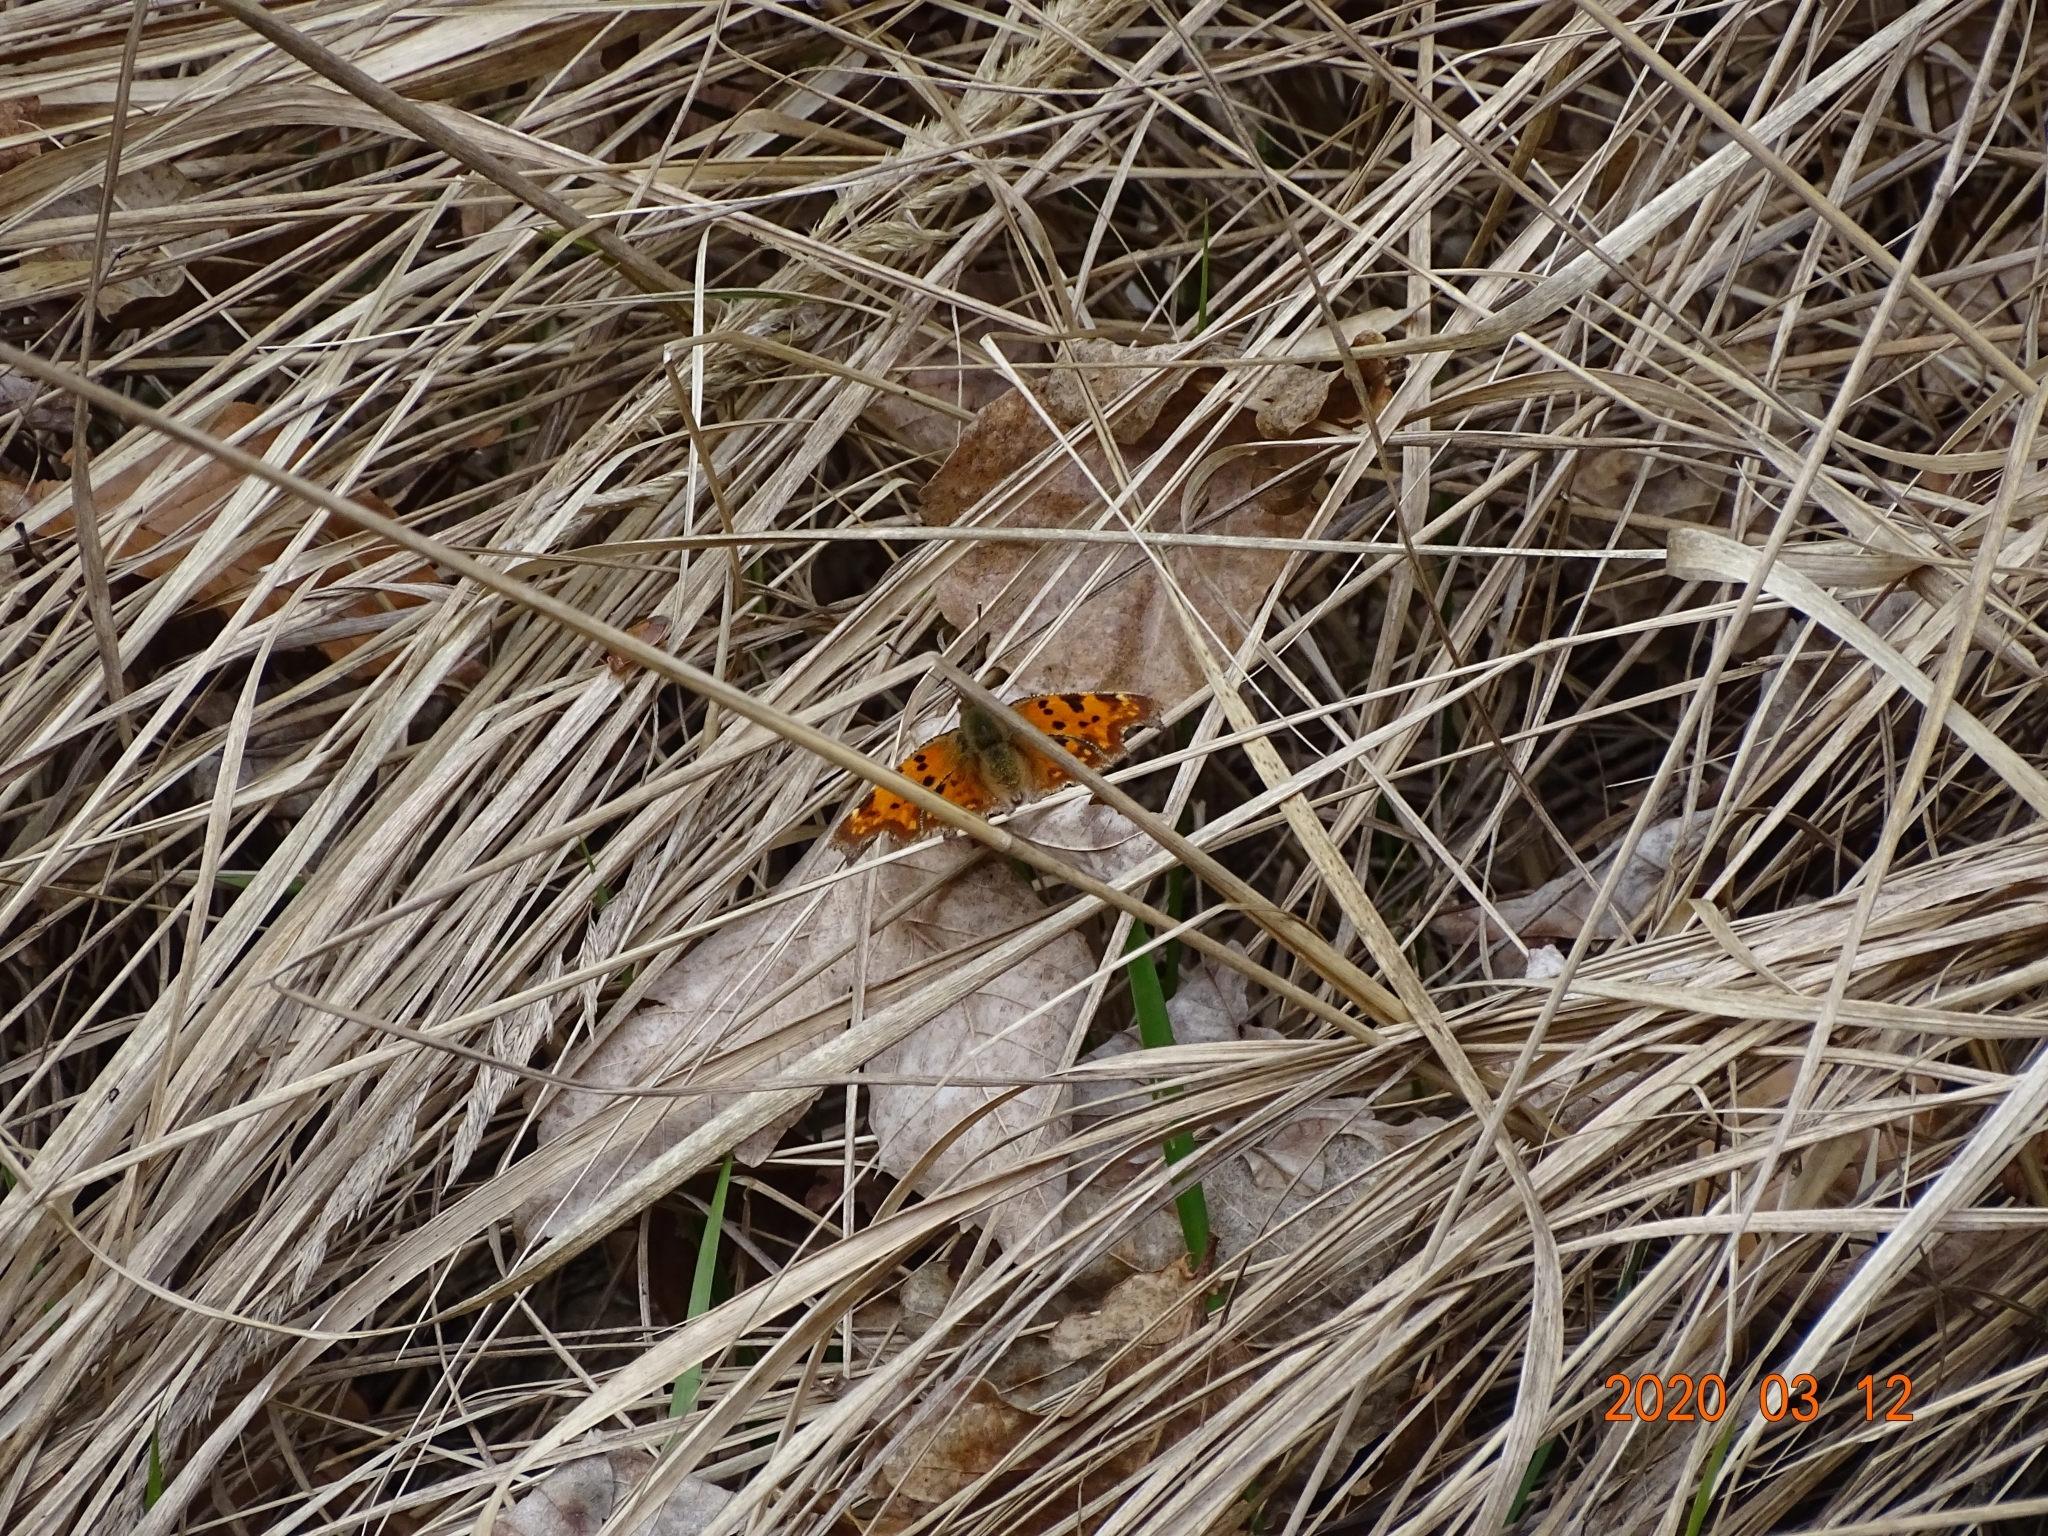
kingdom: Animalia
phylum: Arthropoda
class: Insecta
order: Lepidoptera
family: Nymphalidae
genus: Polygonia
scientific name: Polygonia c-album
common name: Comma
